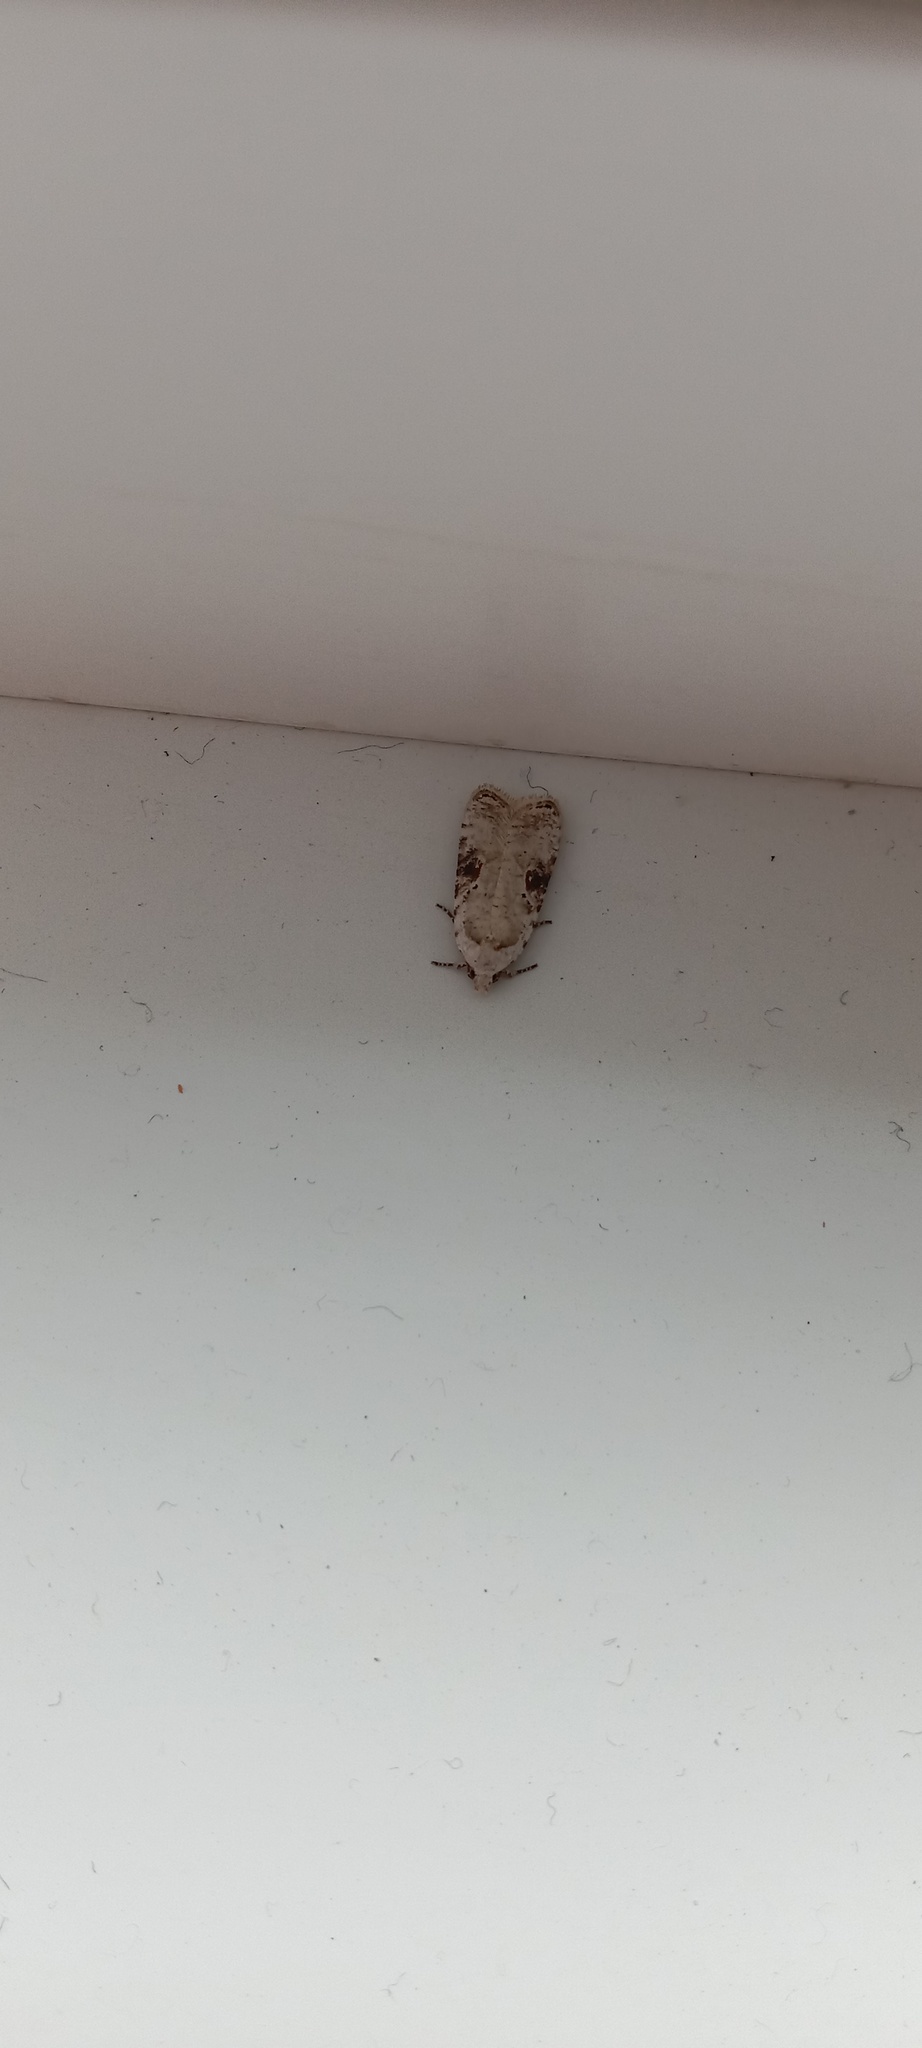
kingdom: Animalia
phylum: Arthropoda
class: Insecta
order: Lepidoptera
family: Depressariidae
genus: Agonopterix
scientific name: Agonopterix alstroemeriana
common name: Moth
